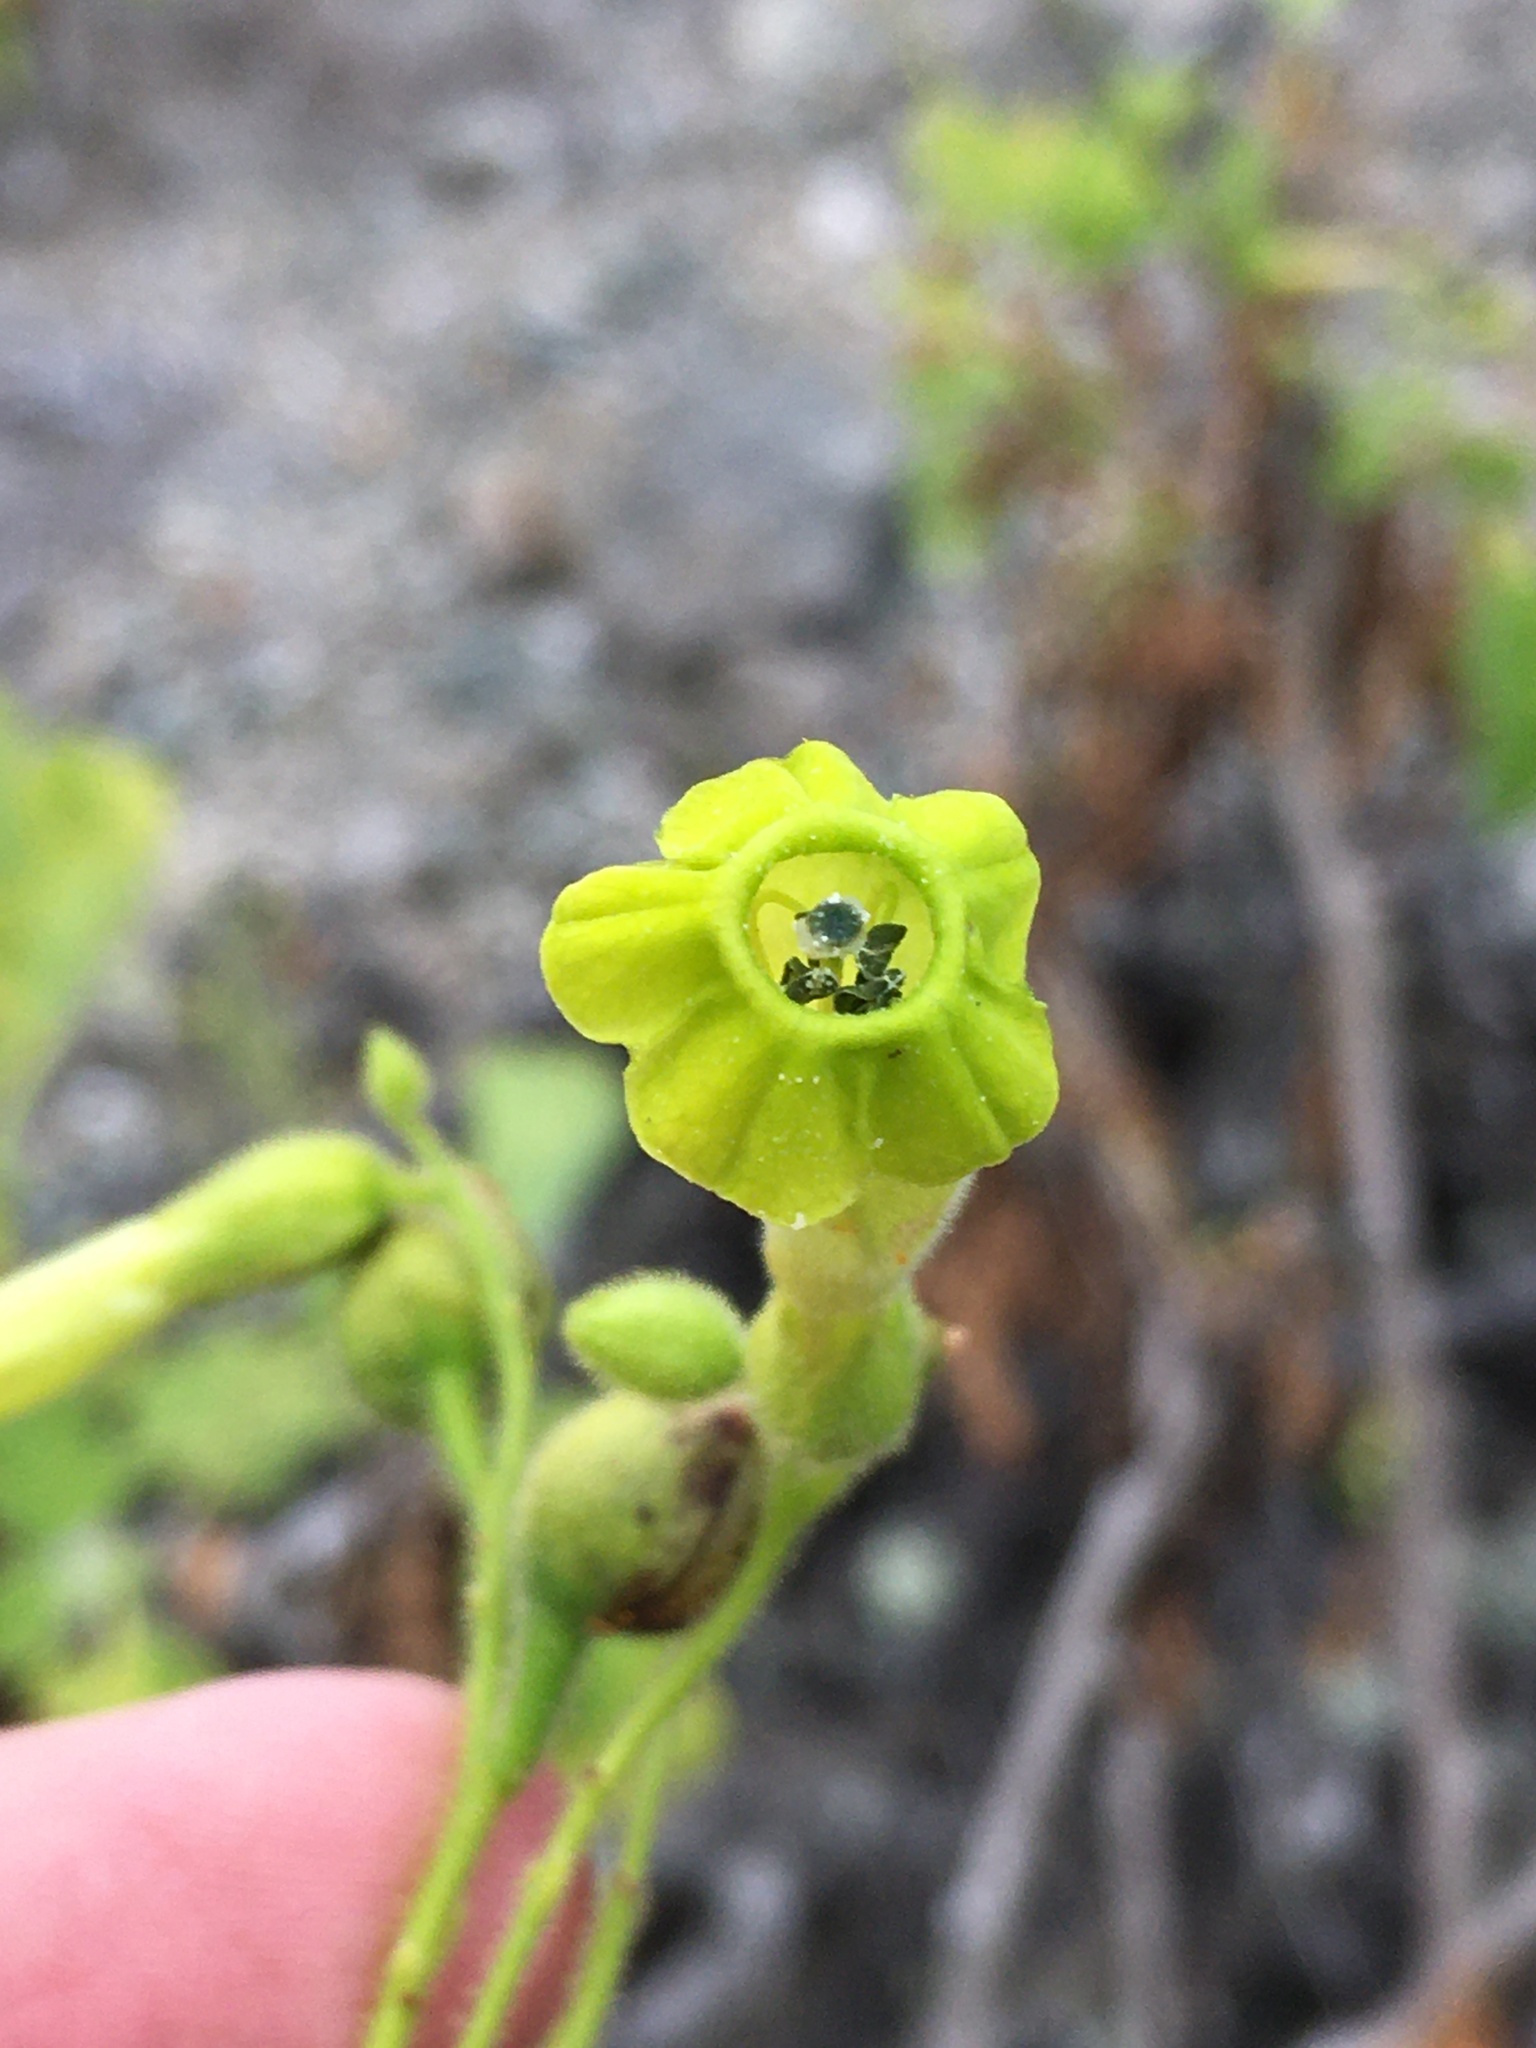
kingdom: Plantae
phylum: Tracheophyta
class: Magnoliopsida
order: Solanales
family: Solanaceae
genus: Nicotiana
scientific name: Nicotiana solanifolia
